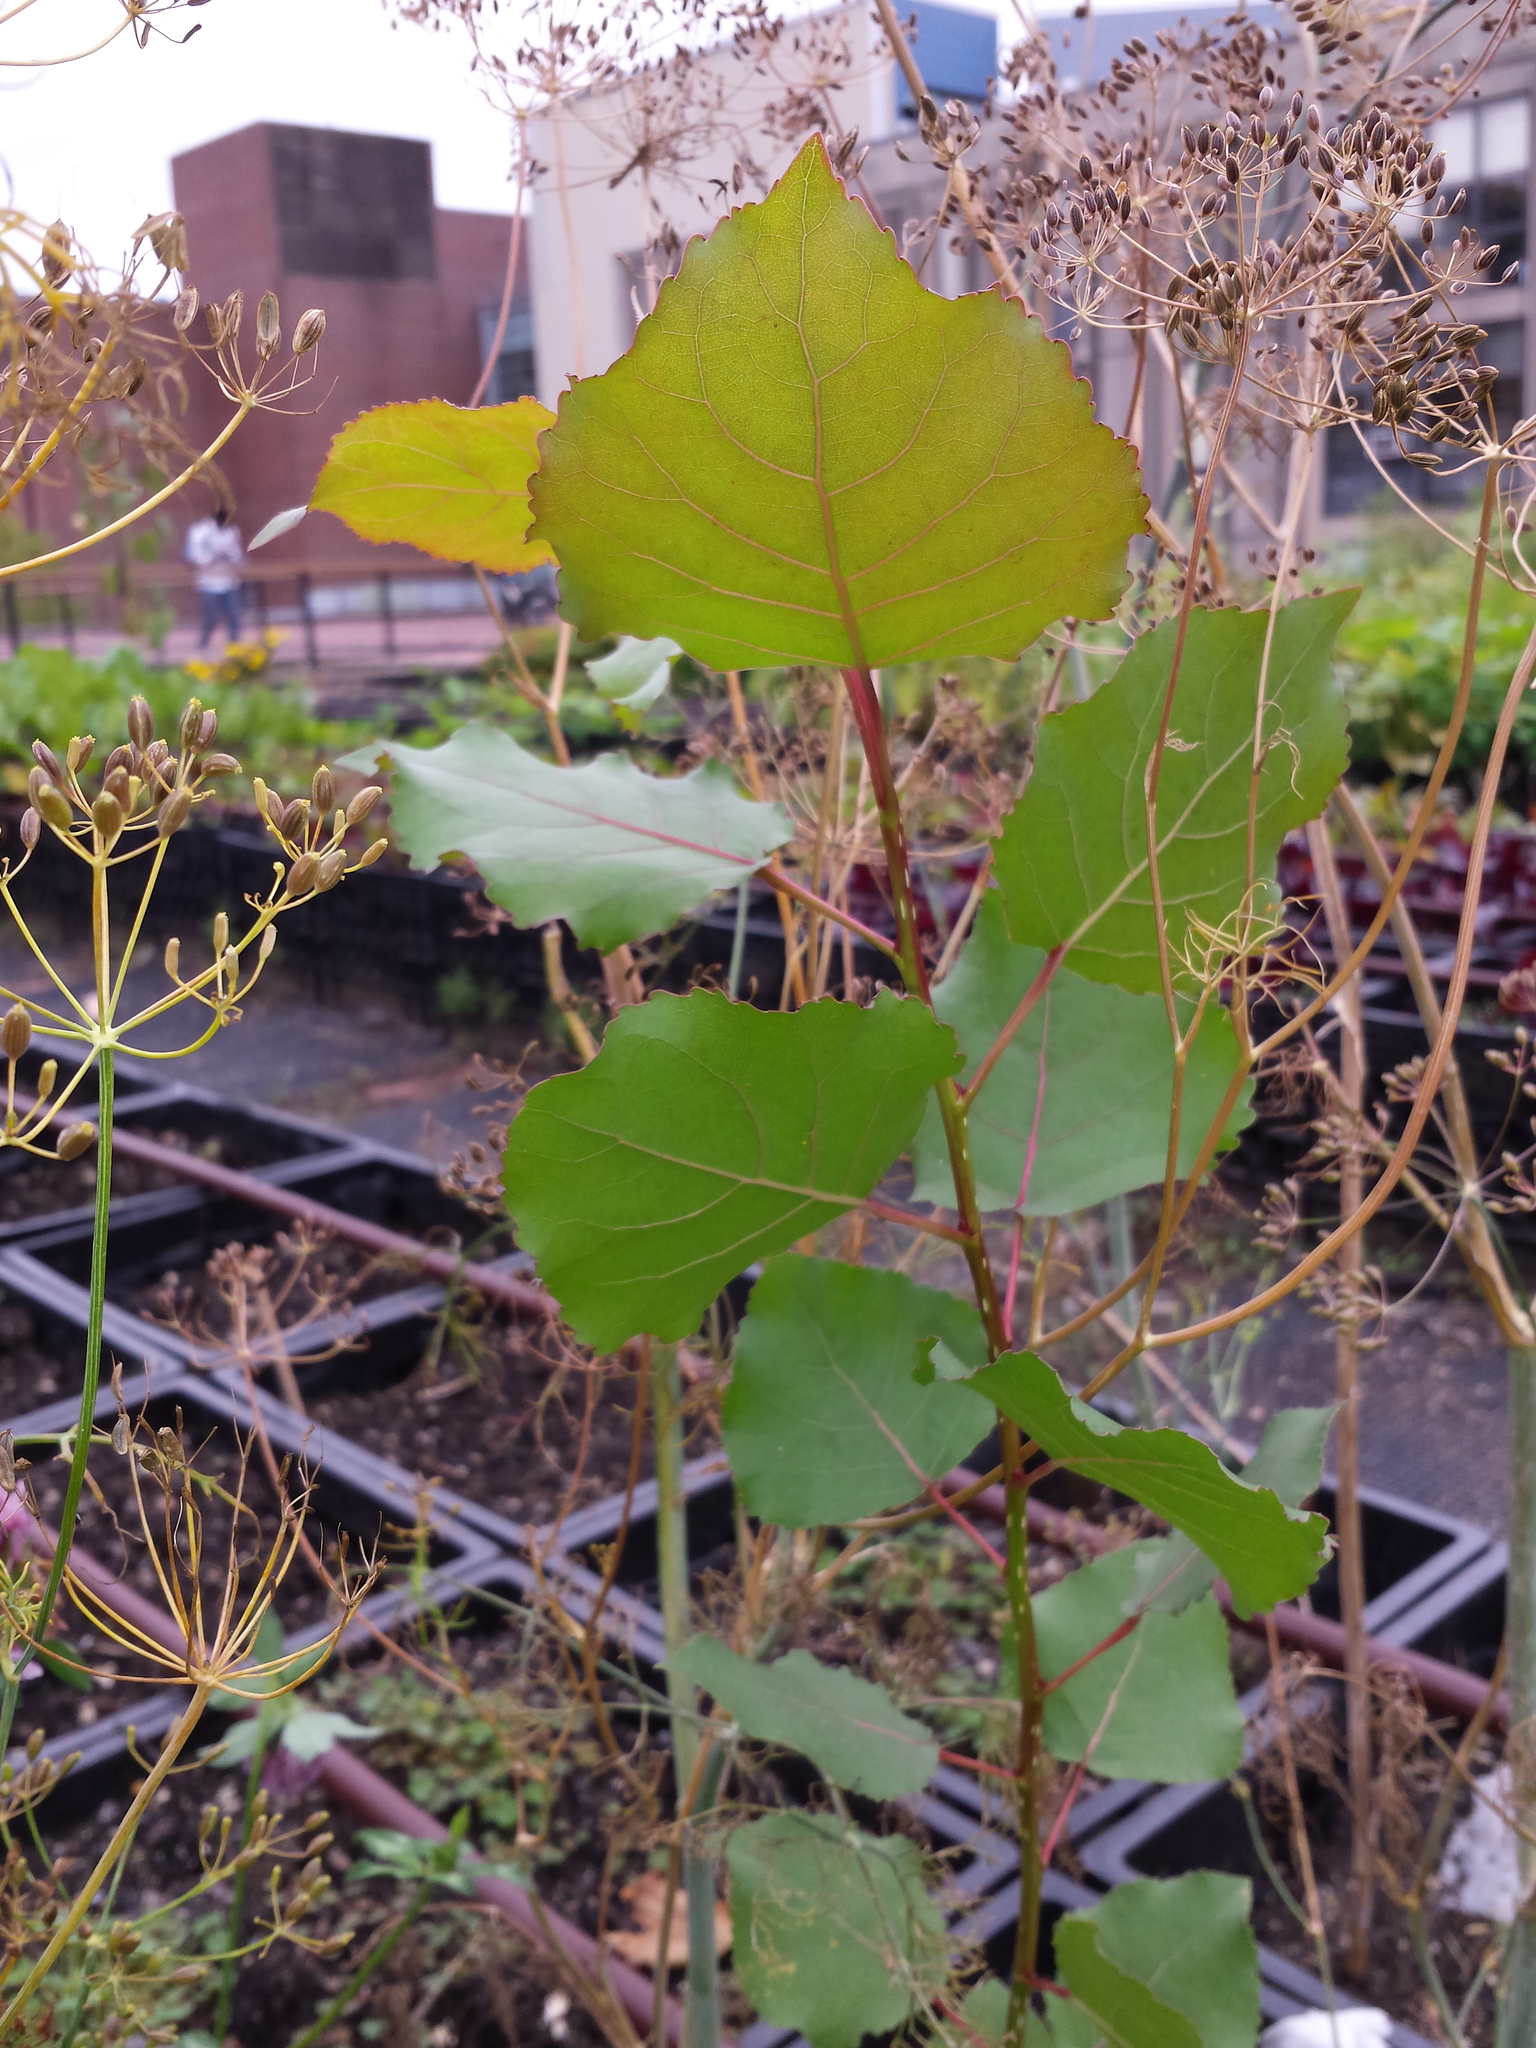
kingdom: Plantae
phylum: Tracheophyta
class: Magnoliopsida
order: Malpighiales
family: Salicaceae
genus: Populus
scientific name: Populus deltoides
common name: Eastern cottonwood
